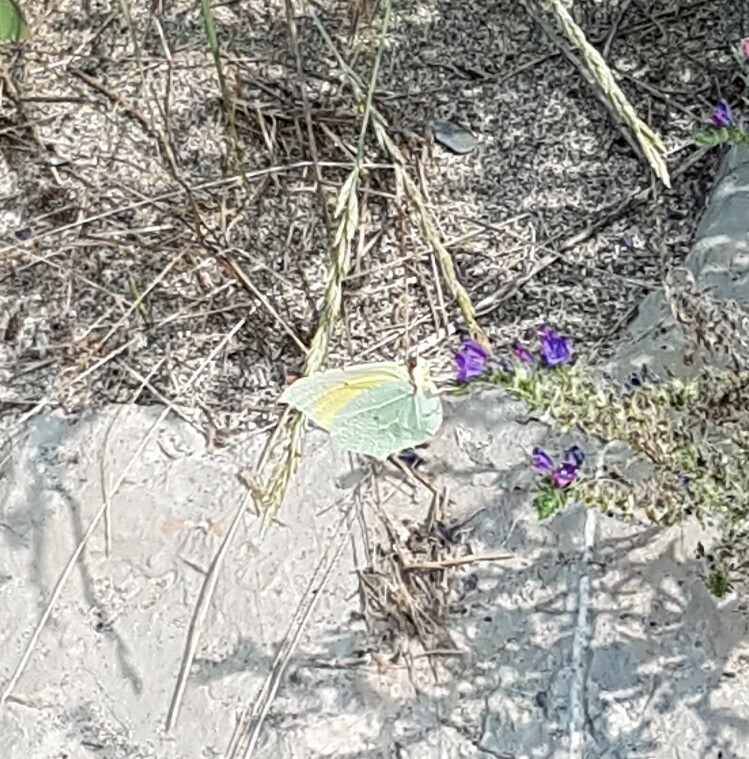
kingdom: Animalia
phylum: Arthropoda
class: Insecta
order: Lepidoptera
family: Pieridae
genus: Gonepteryx
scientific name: Gonepteryx cleopatra
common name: Cleopatra
